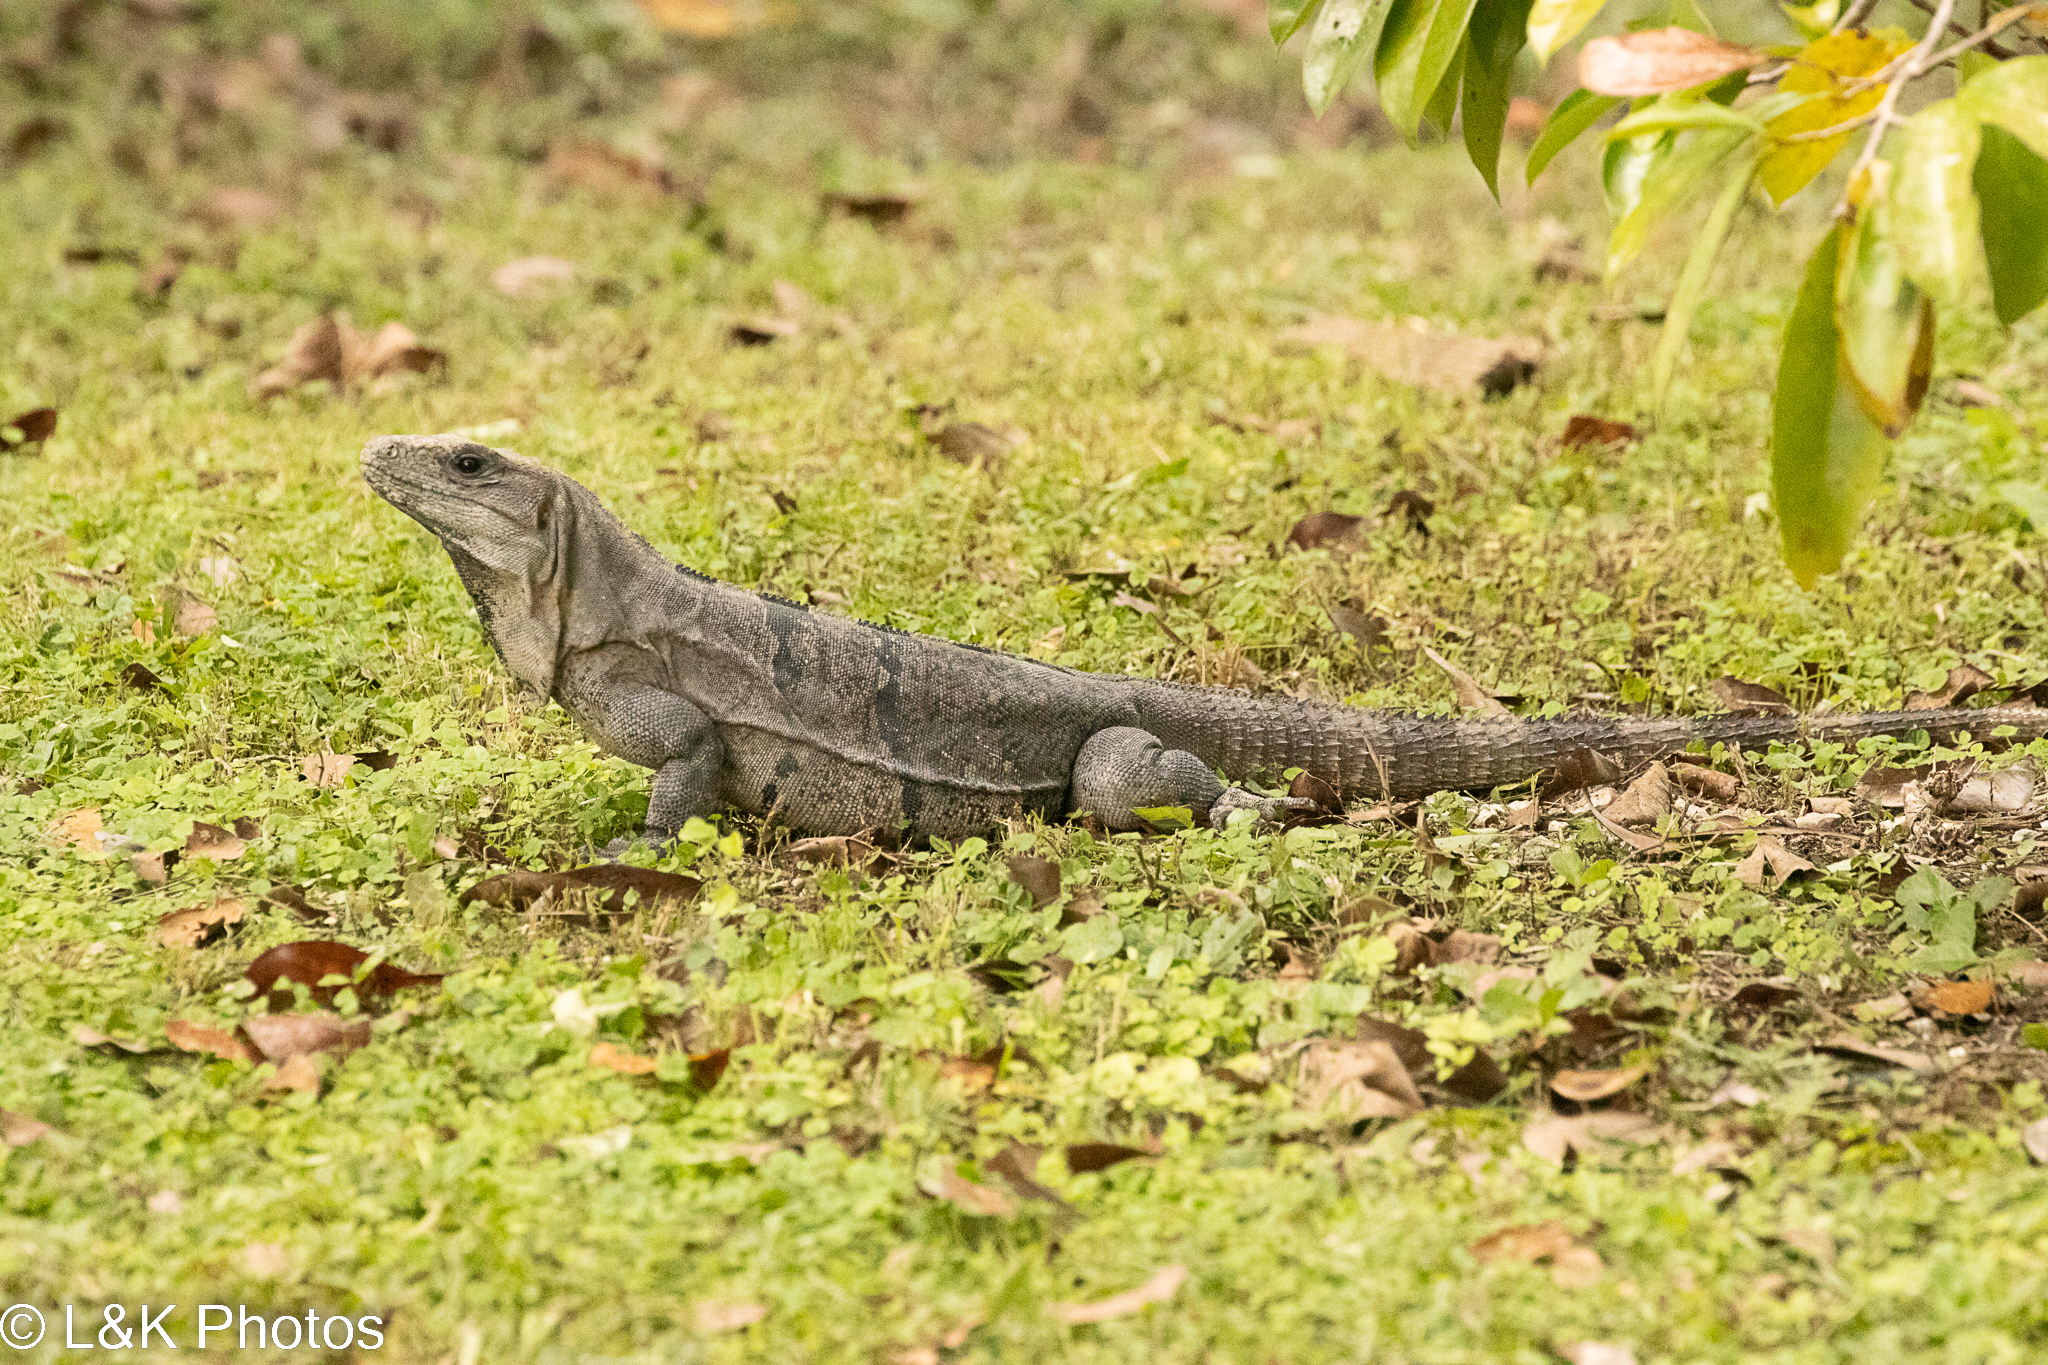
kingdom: Animalia
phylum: Chordata
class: Squamata
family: Iguanidae
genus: Ctenosaura
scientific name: Ctenosaura similis
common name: Black spiny-tailed iguana
